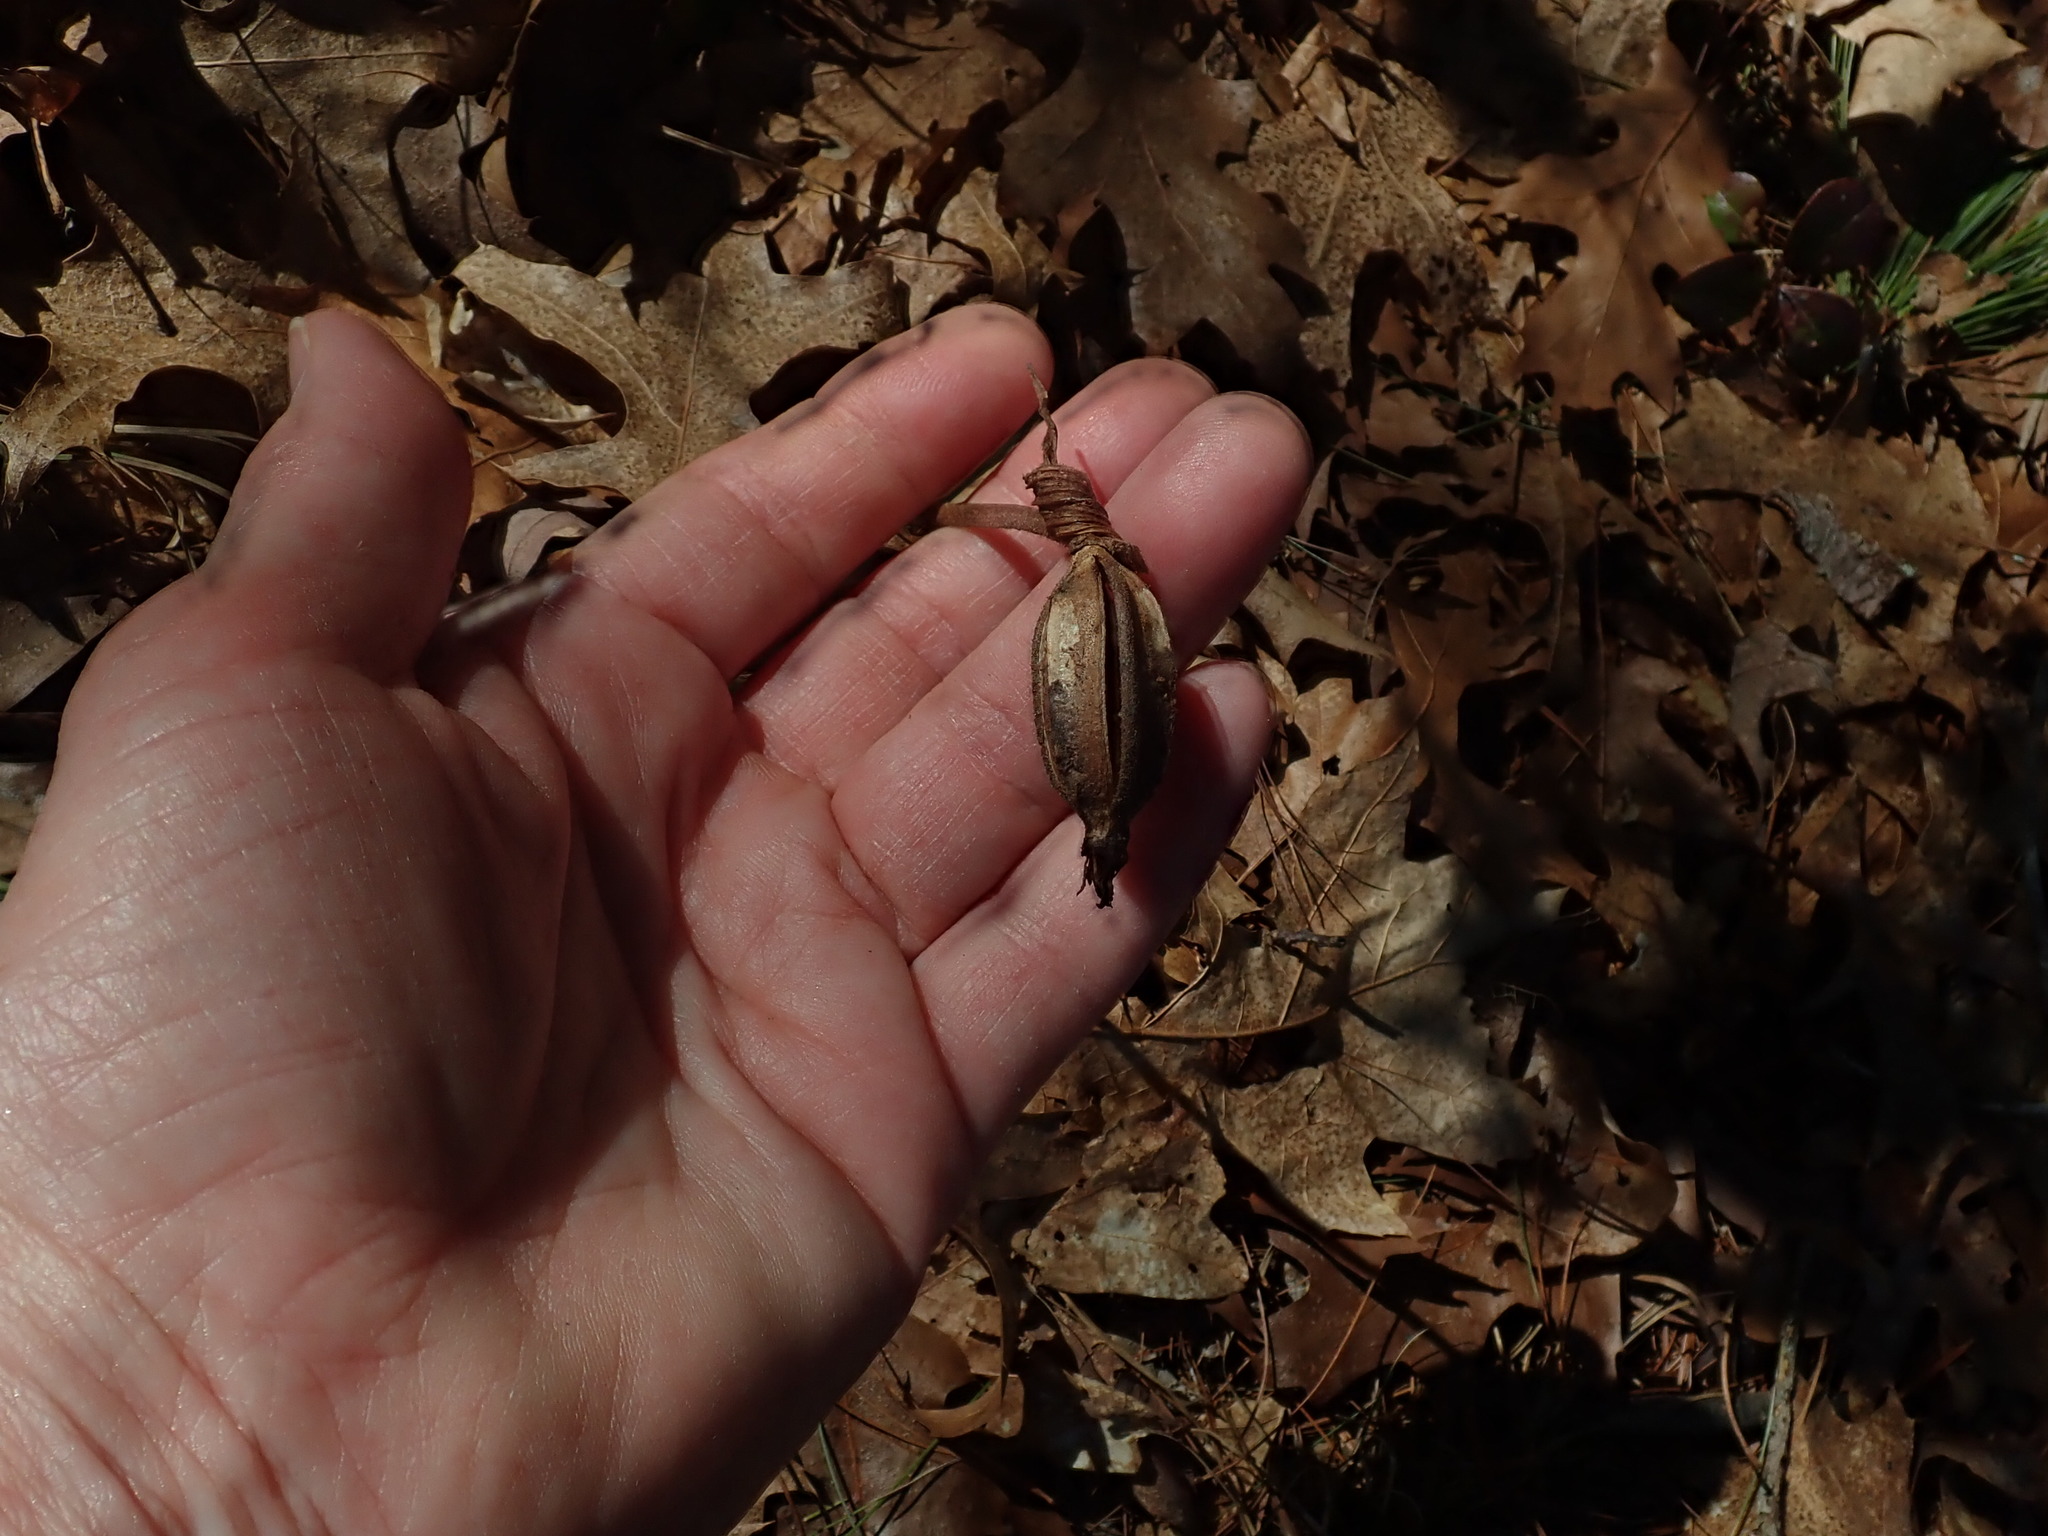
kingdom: Plantae
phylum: Tracheophyta
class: Liliopsida
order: Asparagales
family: Orchidaceae
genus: Cypripedium
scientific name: Cypripedium acaule
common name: Pink lady's-slipper
